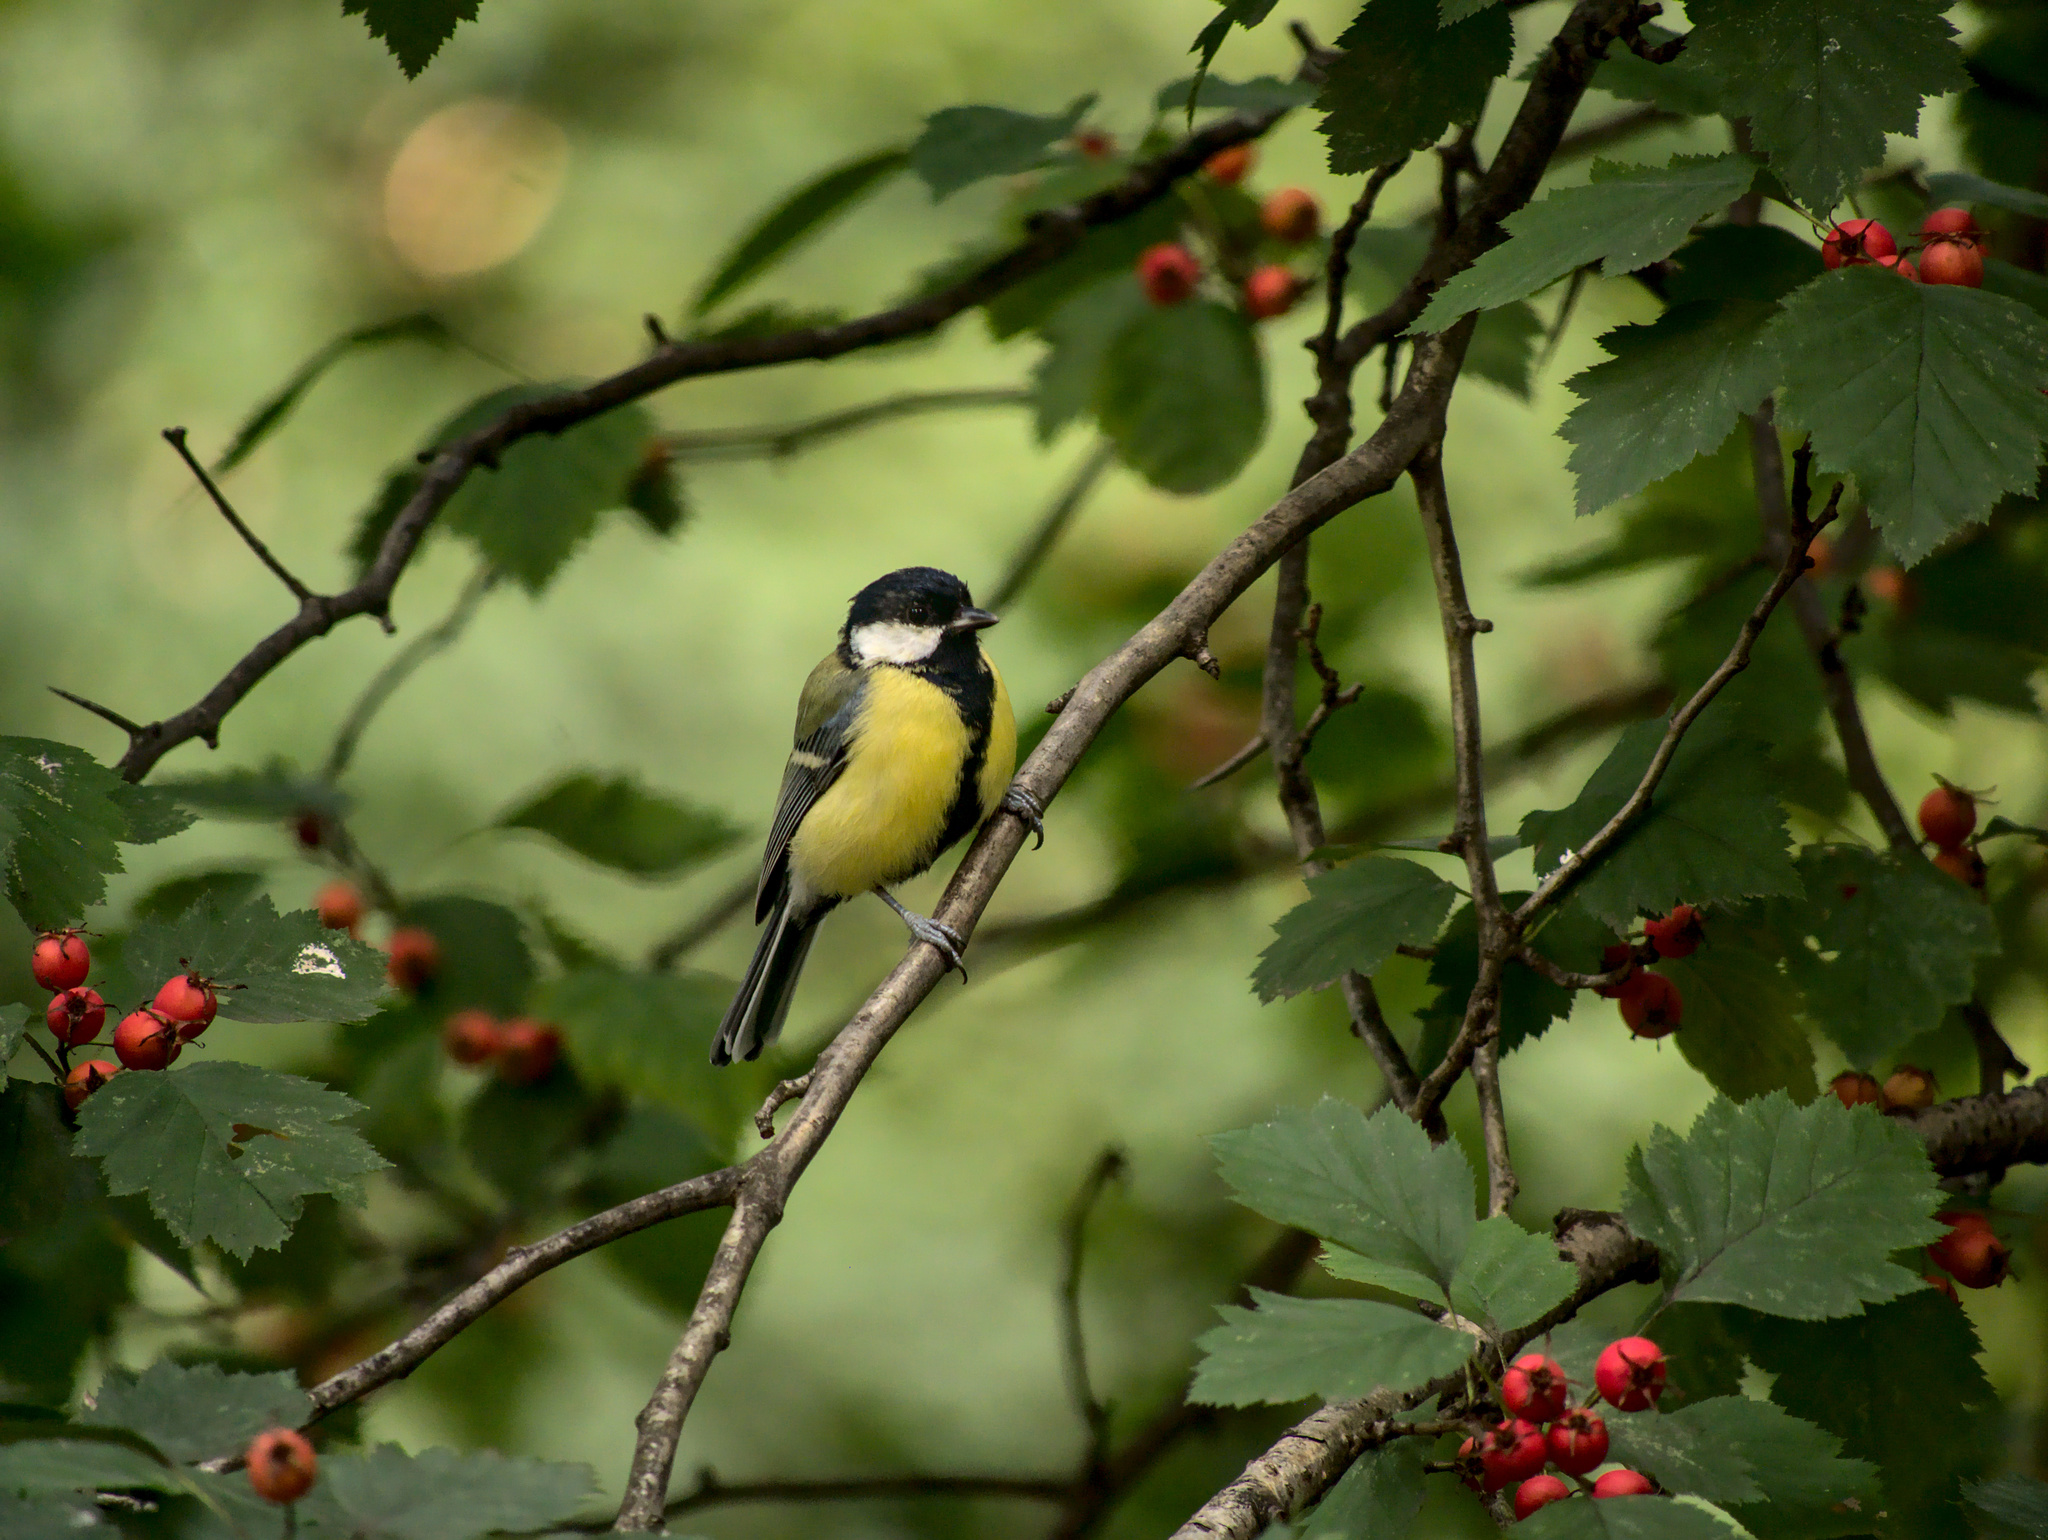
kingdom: Animalia
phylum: Chordata
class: Aves
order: Passeriformes
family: Paridae
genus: Parus
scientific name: Parus major
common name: Great tit
